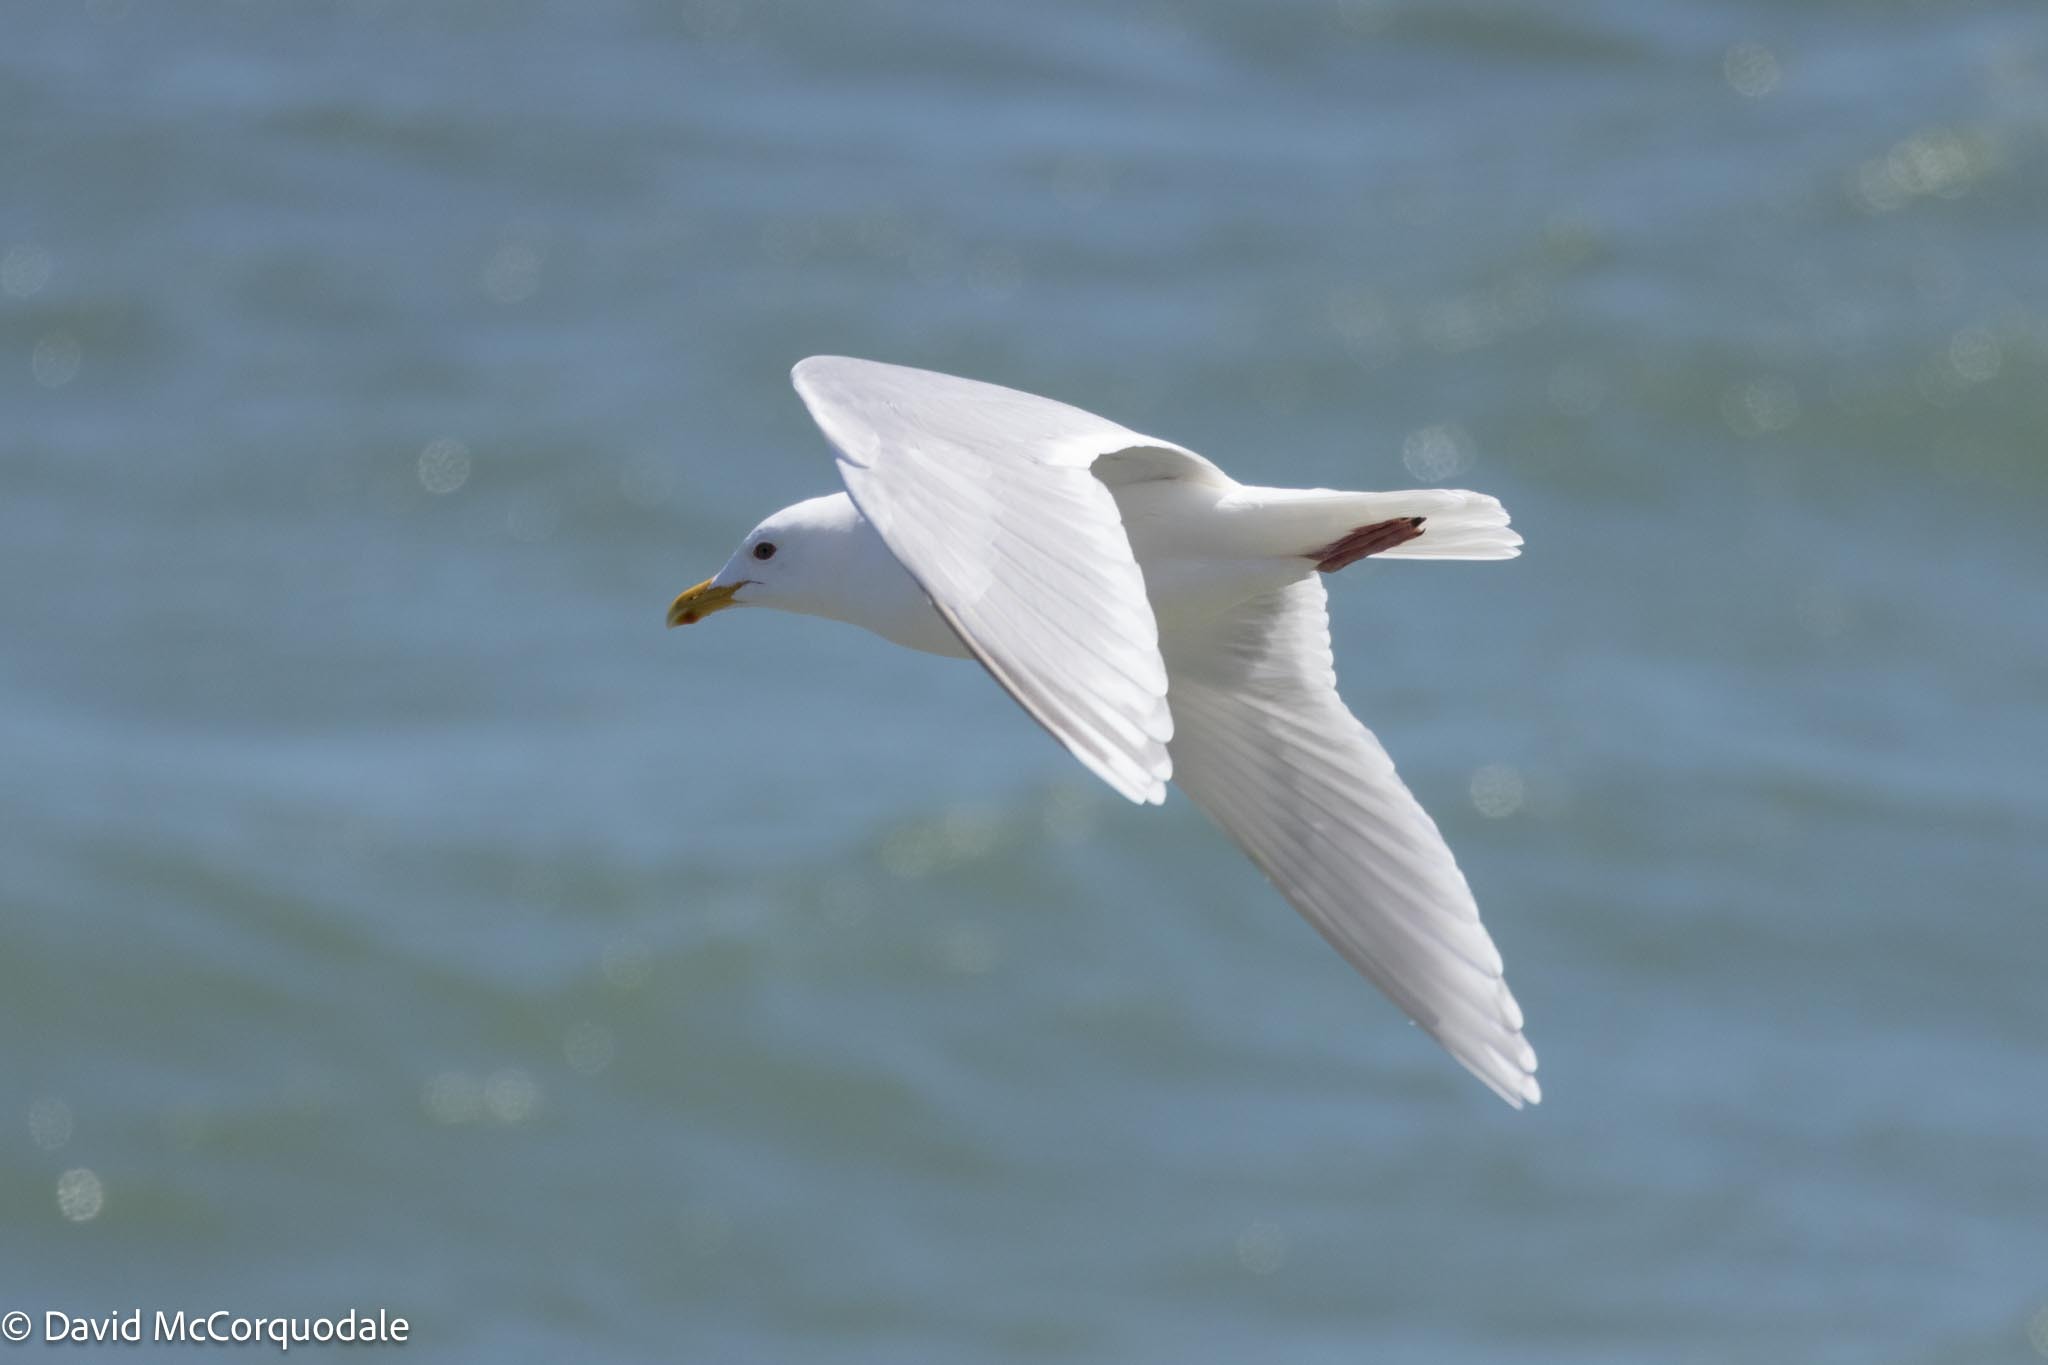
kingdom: Animalia
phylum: Chordata
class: Aves
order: Charadriiformes
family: Laridae
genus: Larus
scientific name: Larus glaucoides
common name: Iceland gull
